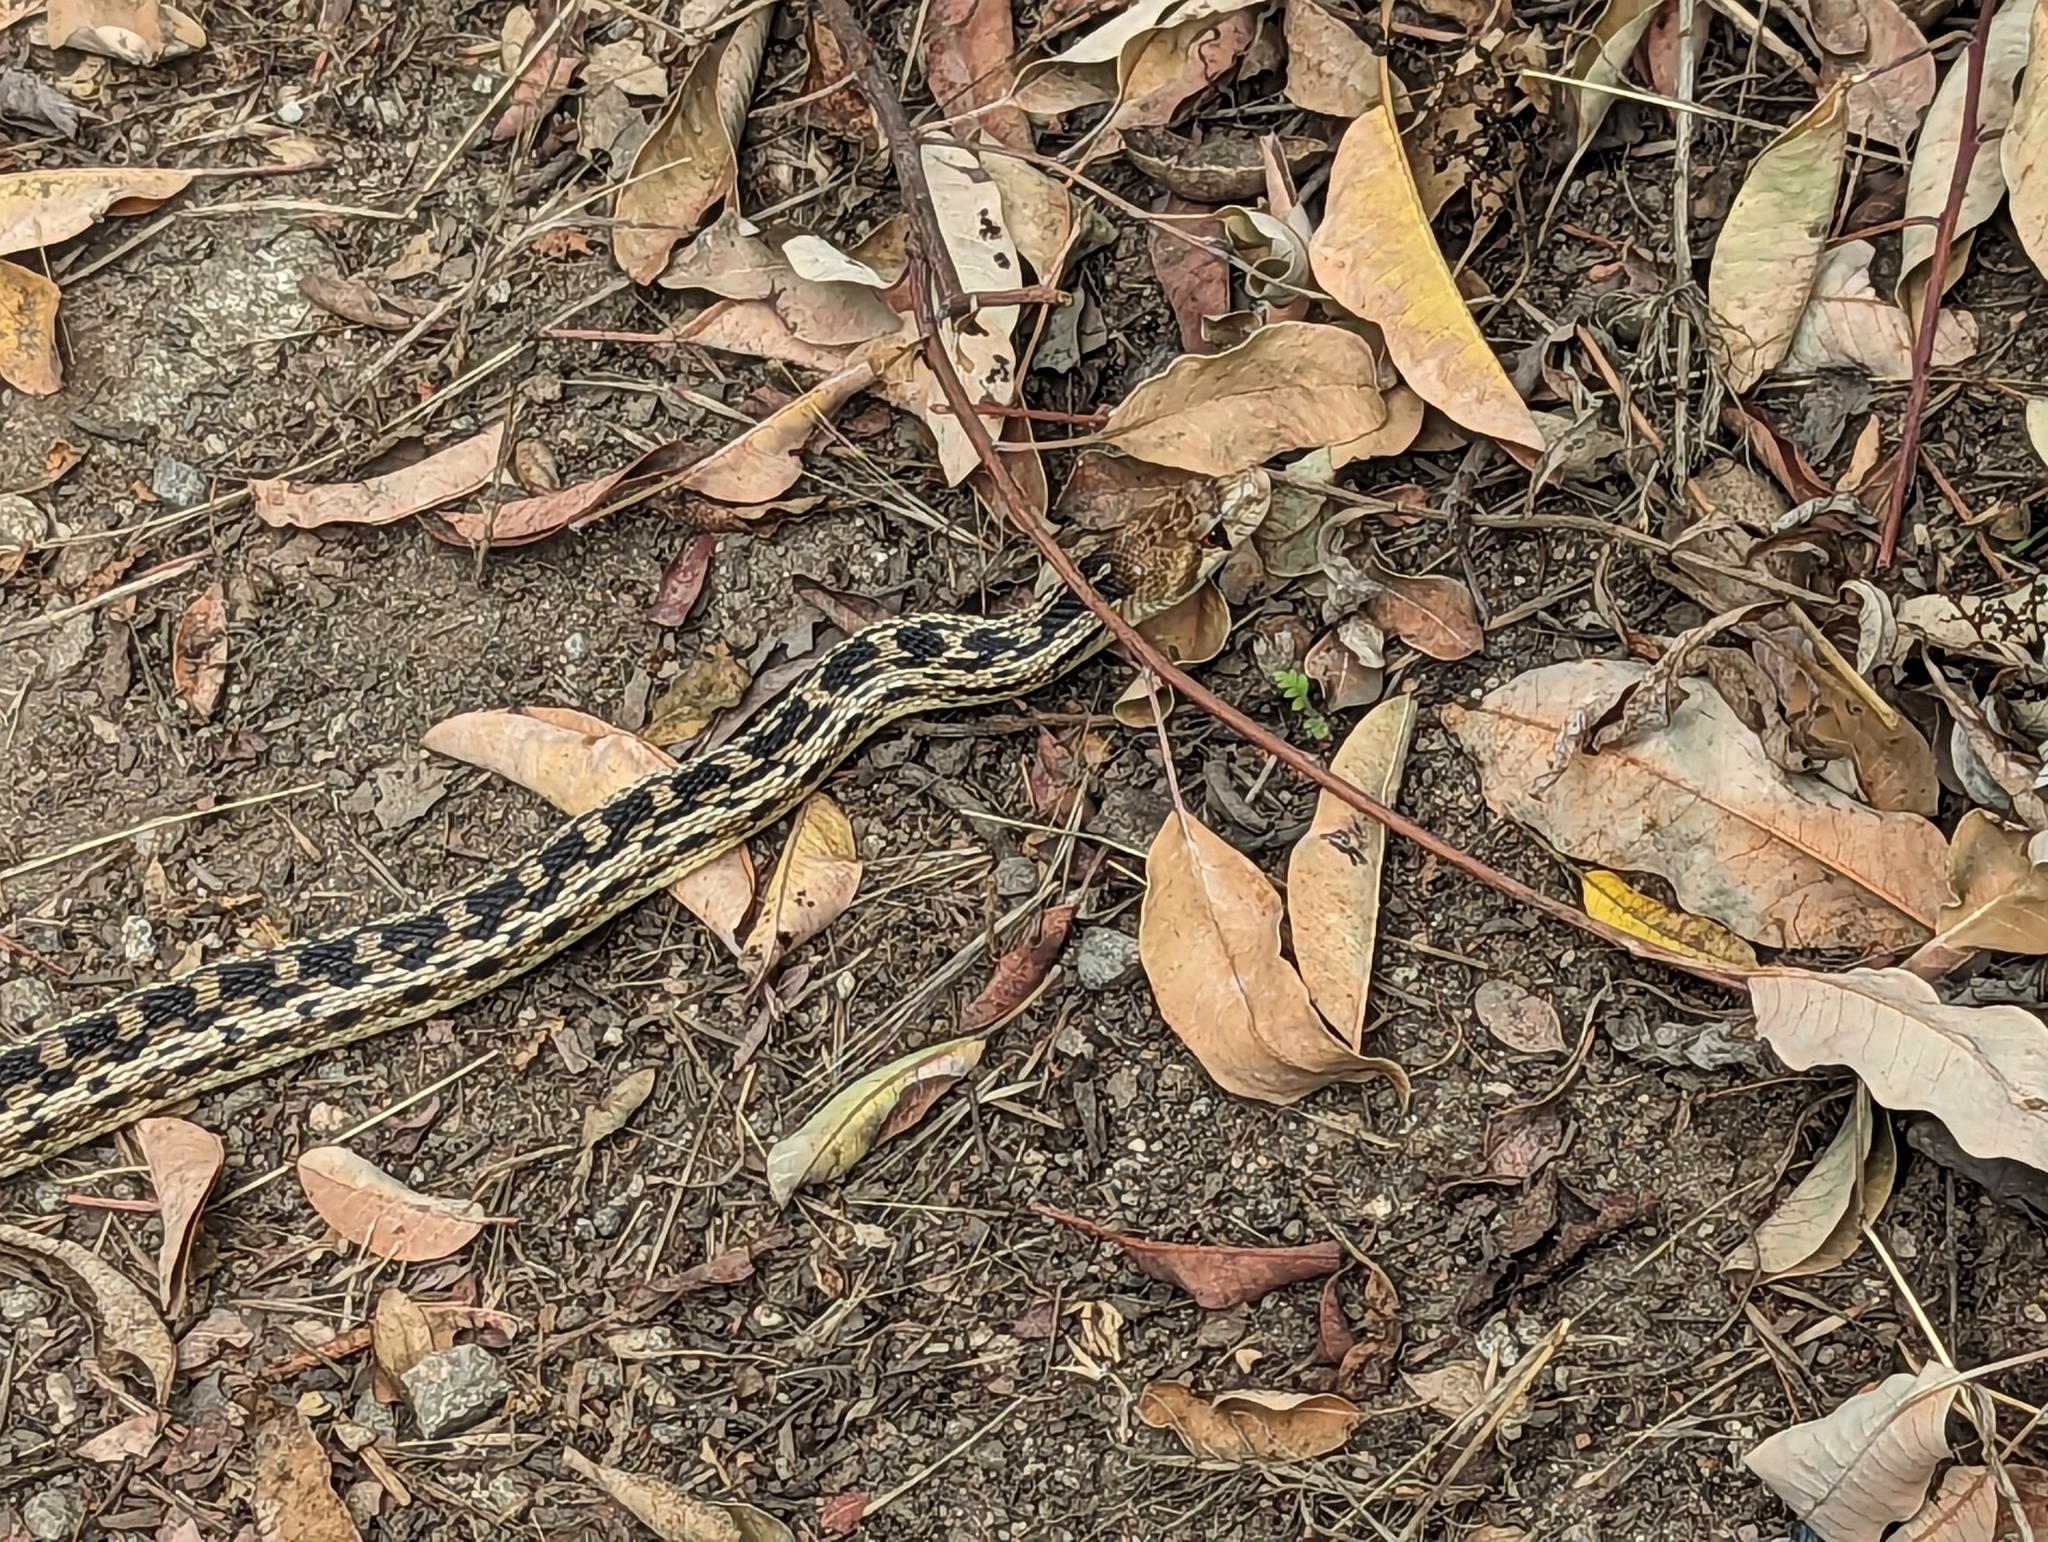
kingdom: Animalia
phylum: Chordata
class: Squamata
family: Colubridae
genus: Pituophis
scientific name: Pituophis catenifer
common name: Gopher snake
